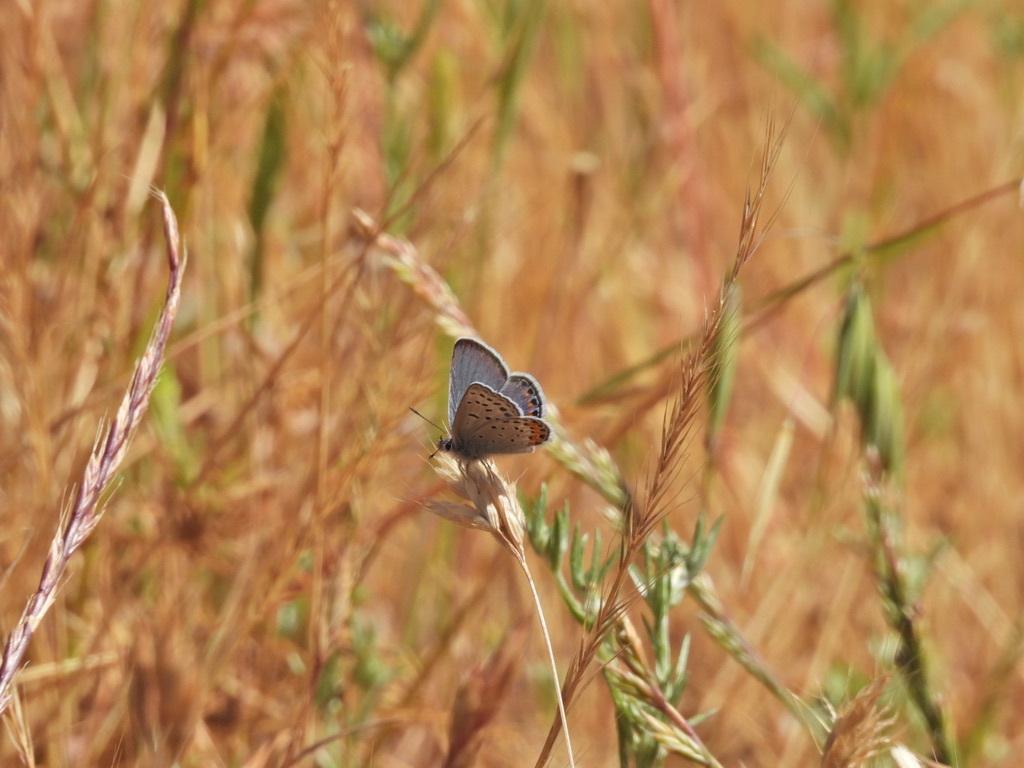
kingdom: Animalia
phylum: Arthropoda
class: Insecta
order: Lepidoptera
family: Lycaenidae
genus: Icaricia
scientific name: Icaricia acmon
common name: Acmon blue
